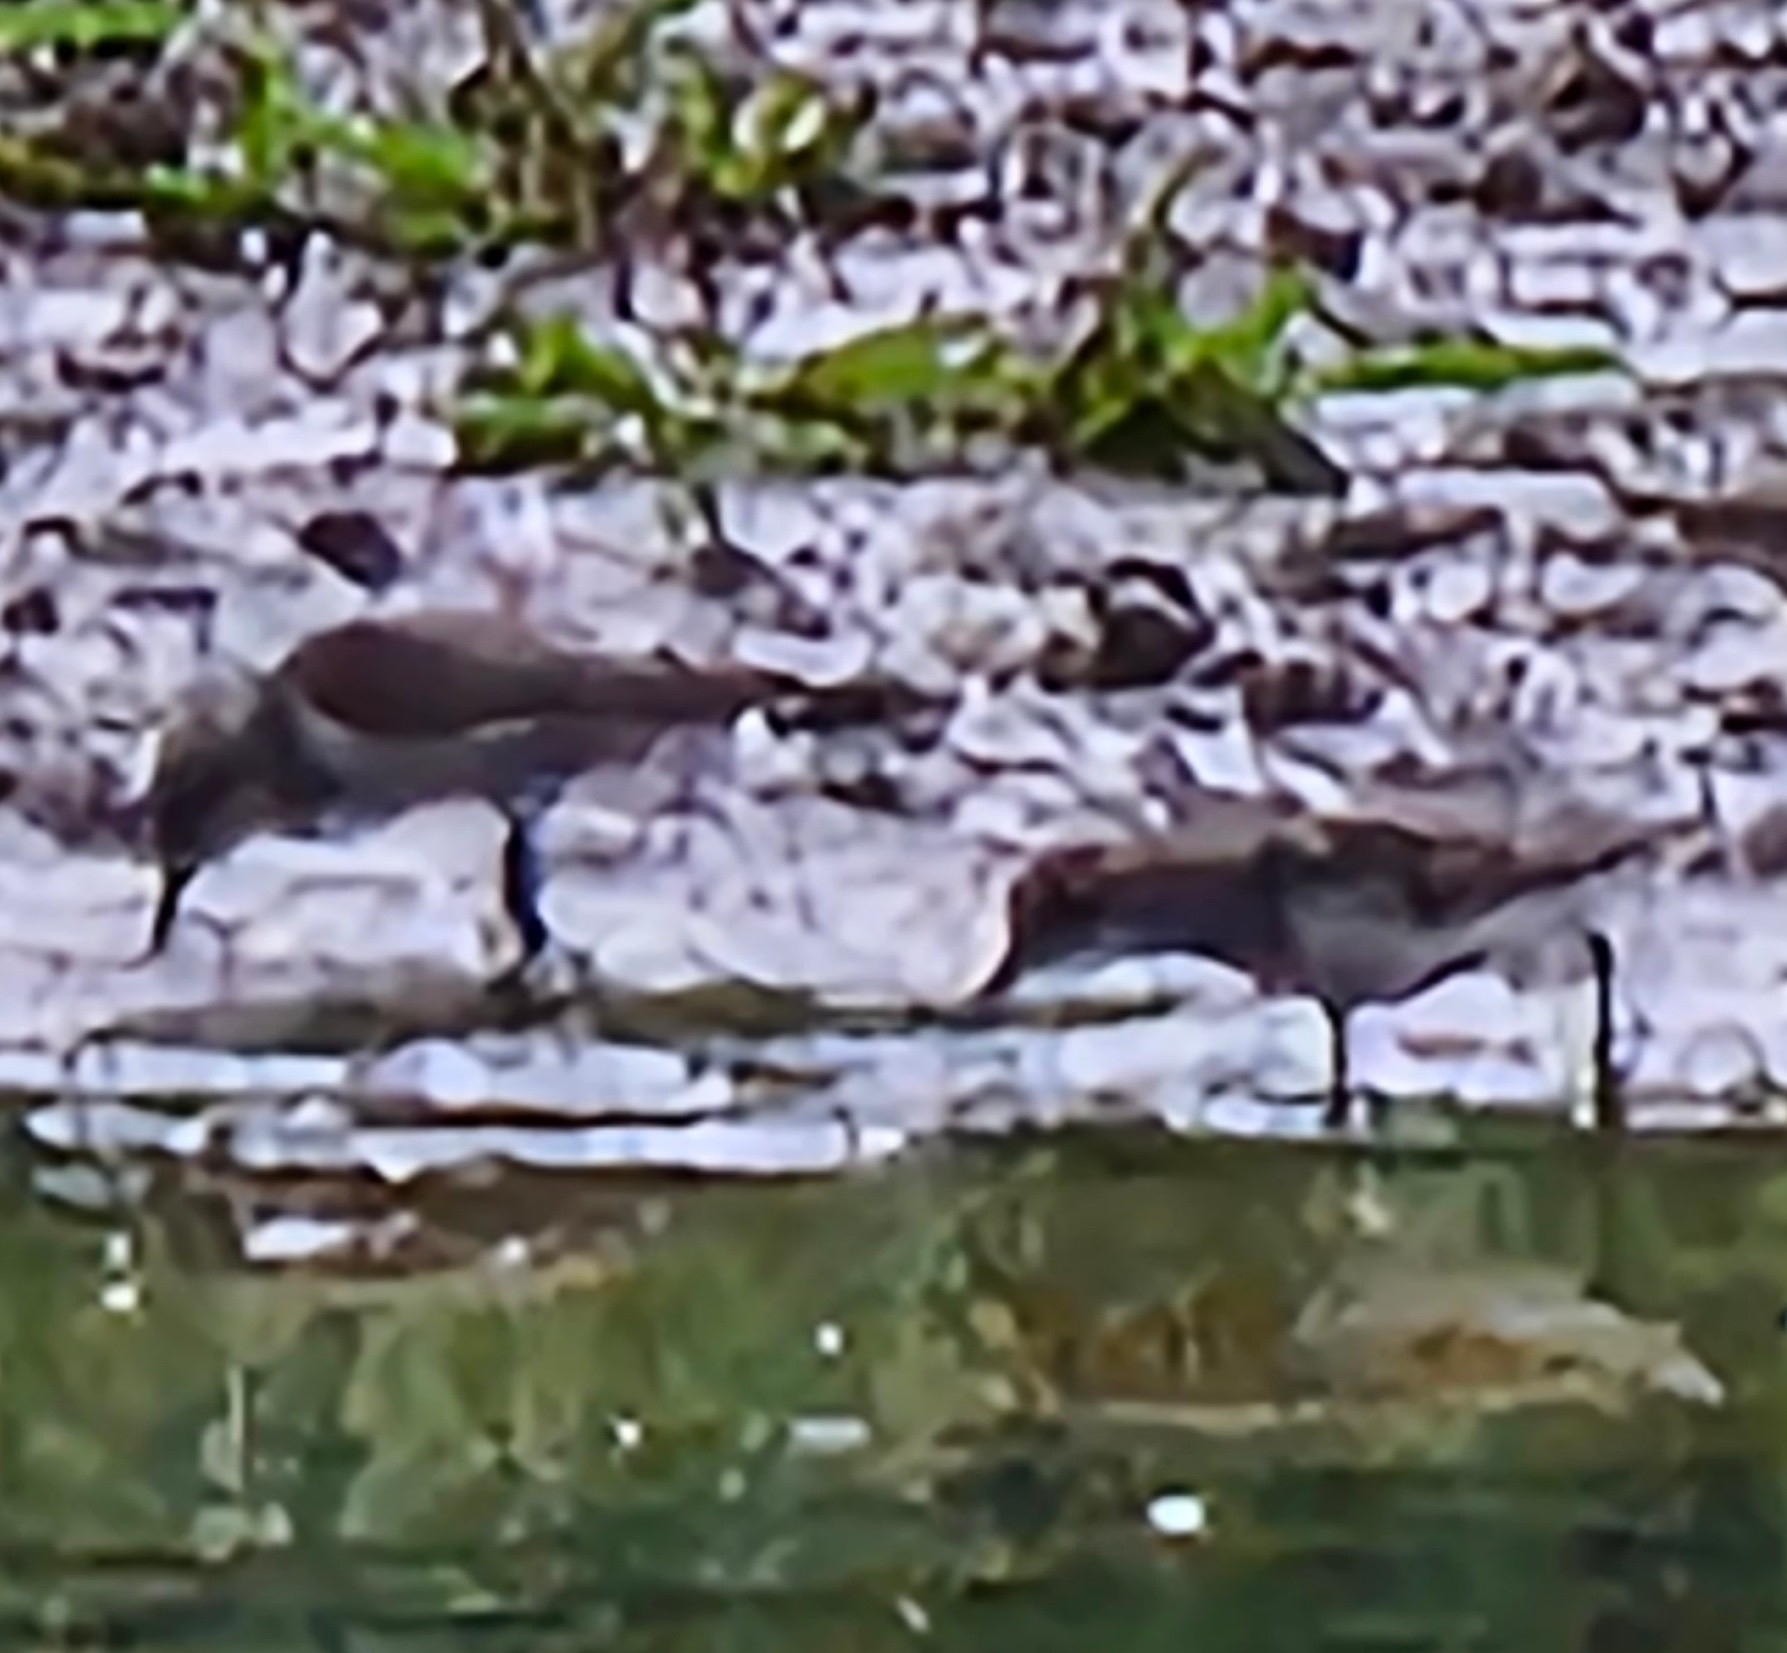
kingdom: Animalia
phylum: Chordata
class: Aves
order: Charadriiformes
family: Scolopacidae
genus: Calidris
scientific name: Calidris alpina
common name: Dunlin
